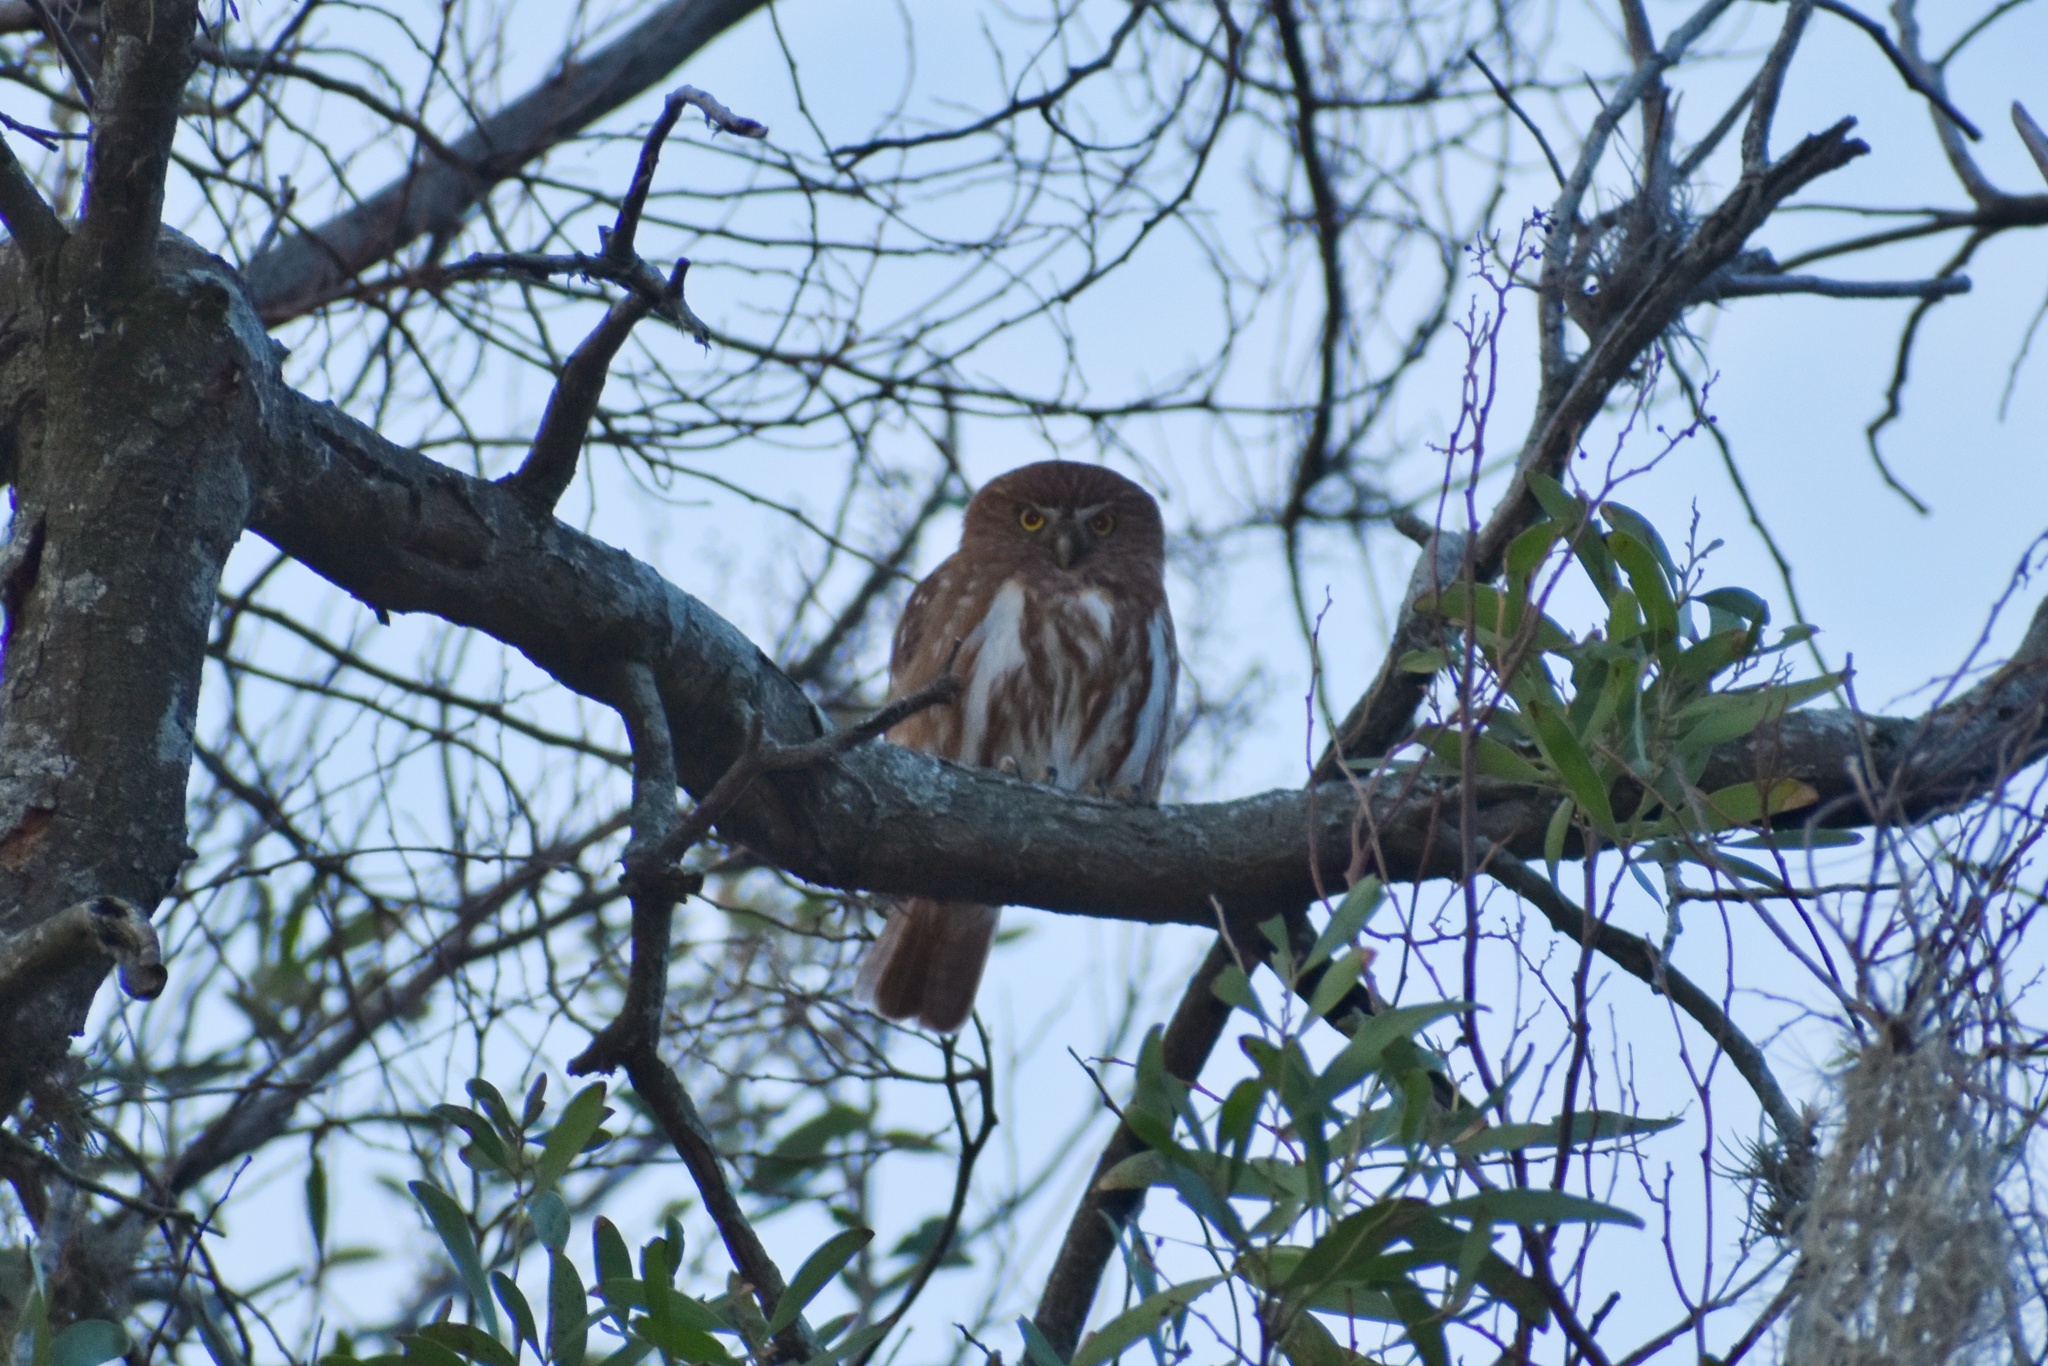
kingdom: Animalia
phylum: Chordata
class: Aves
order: Strigiformes
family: Strigidae
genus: Glaucidium
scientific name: Glaucidium brasilianum
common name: Ferruginous pygmy-owl
